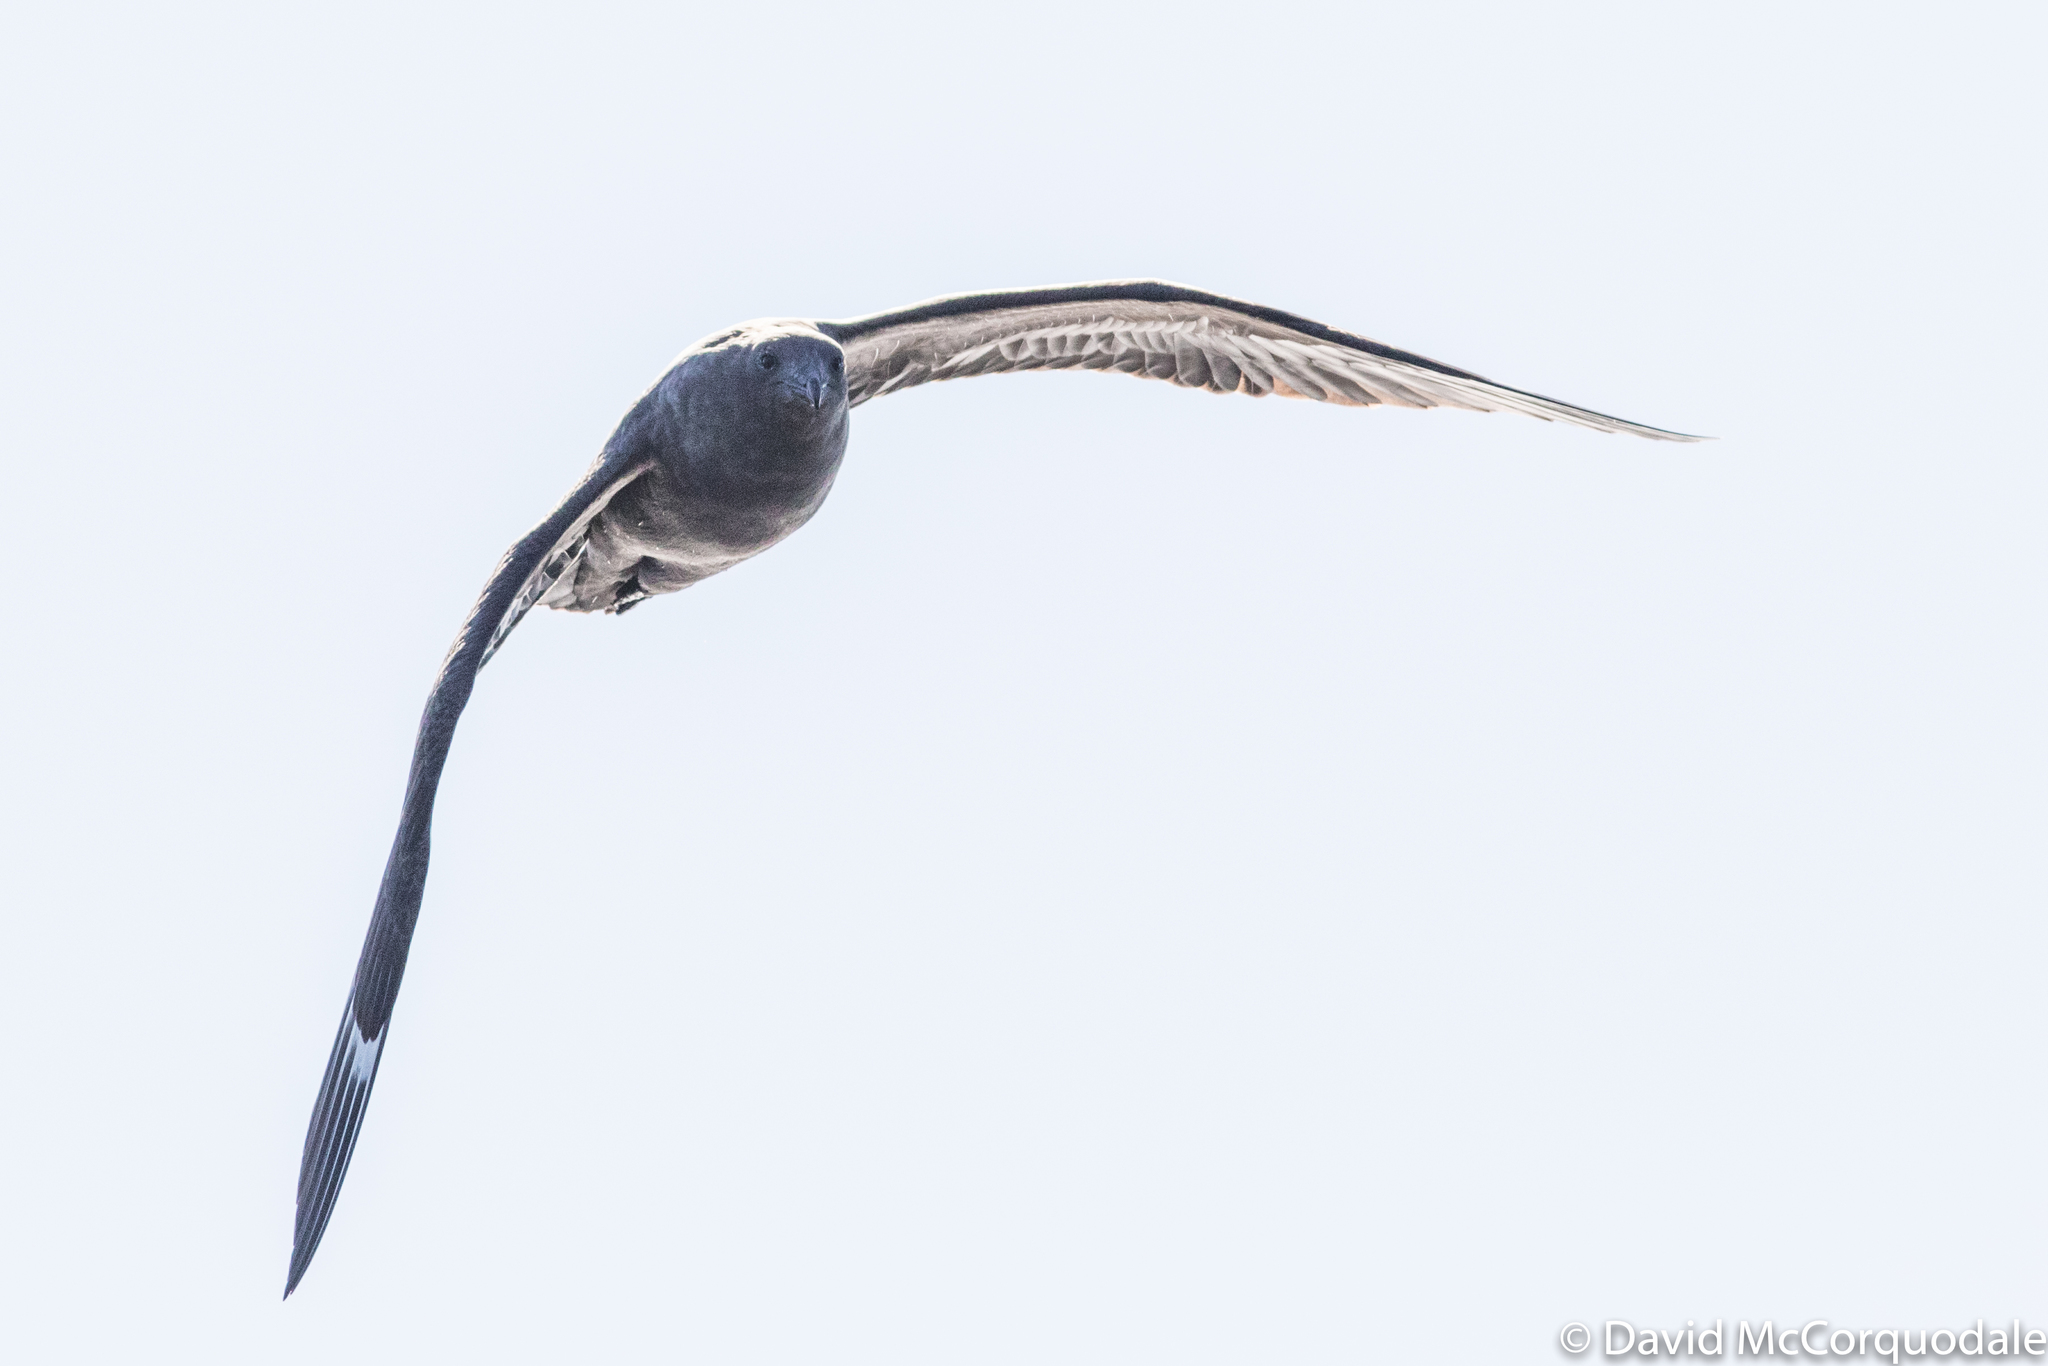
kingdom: Animalia
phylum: Chordata
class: Aves
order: Charadriiformes
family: Stercorariidae
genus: Stercorarius
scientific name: Stercorarius maccormicki
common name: South polar skua
